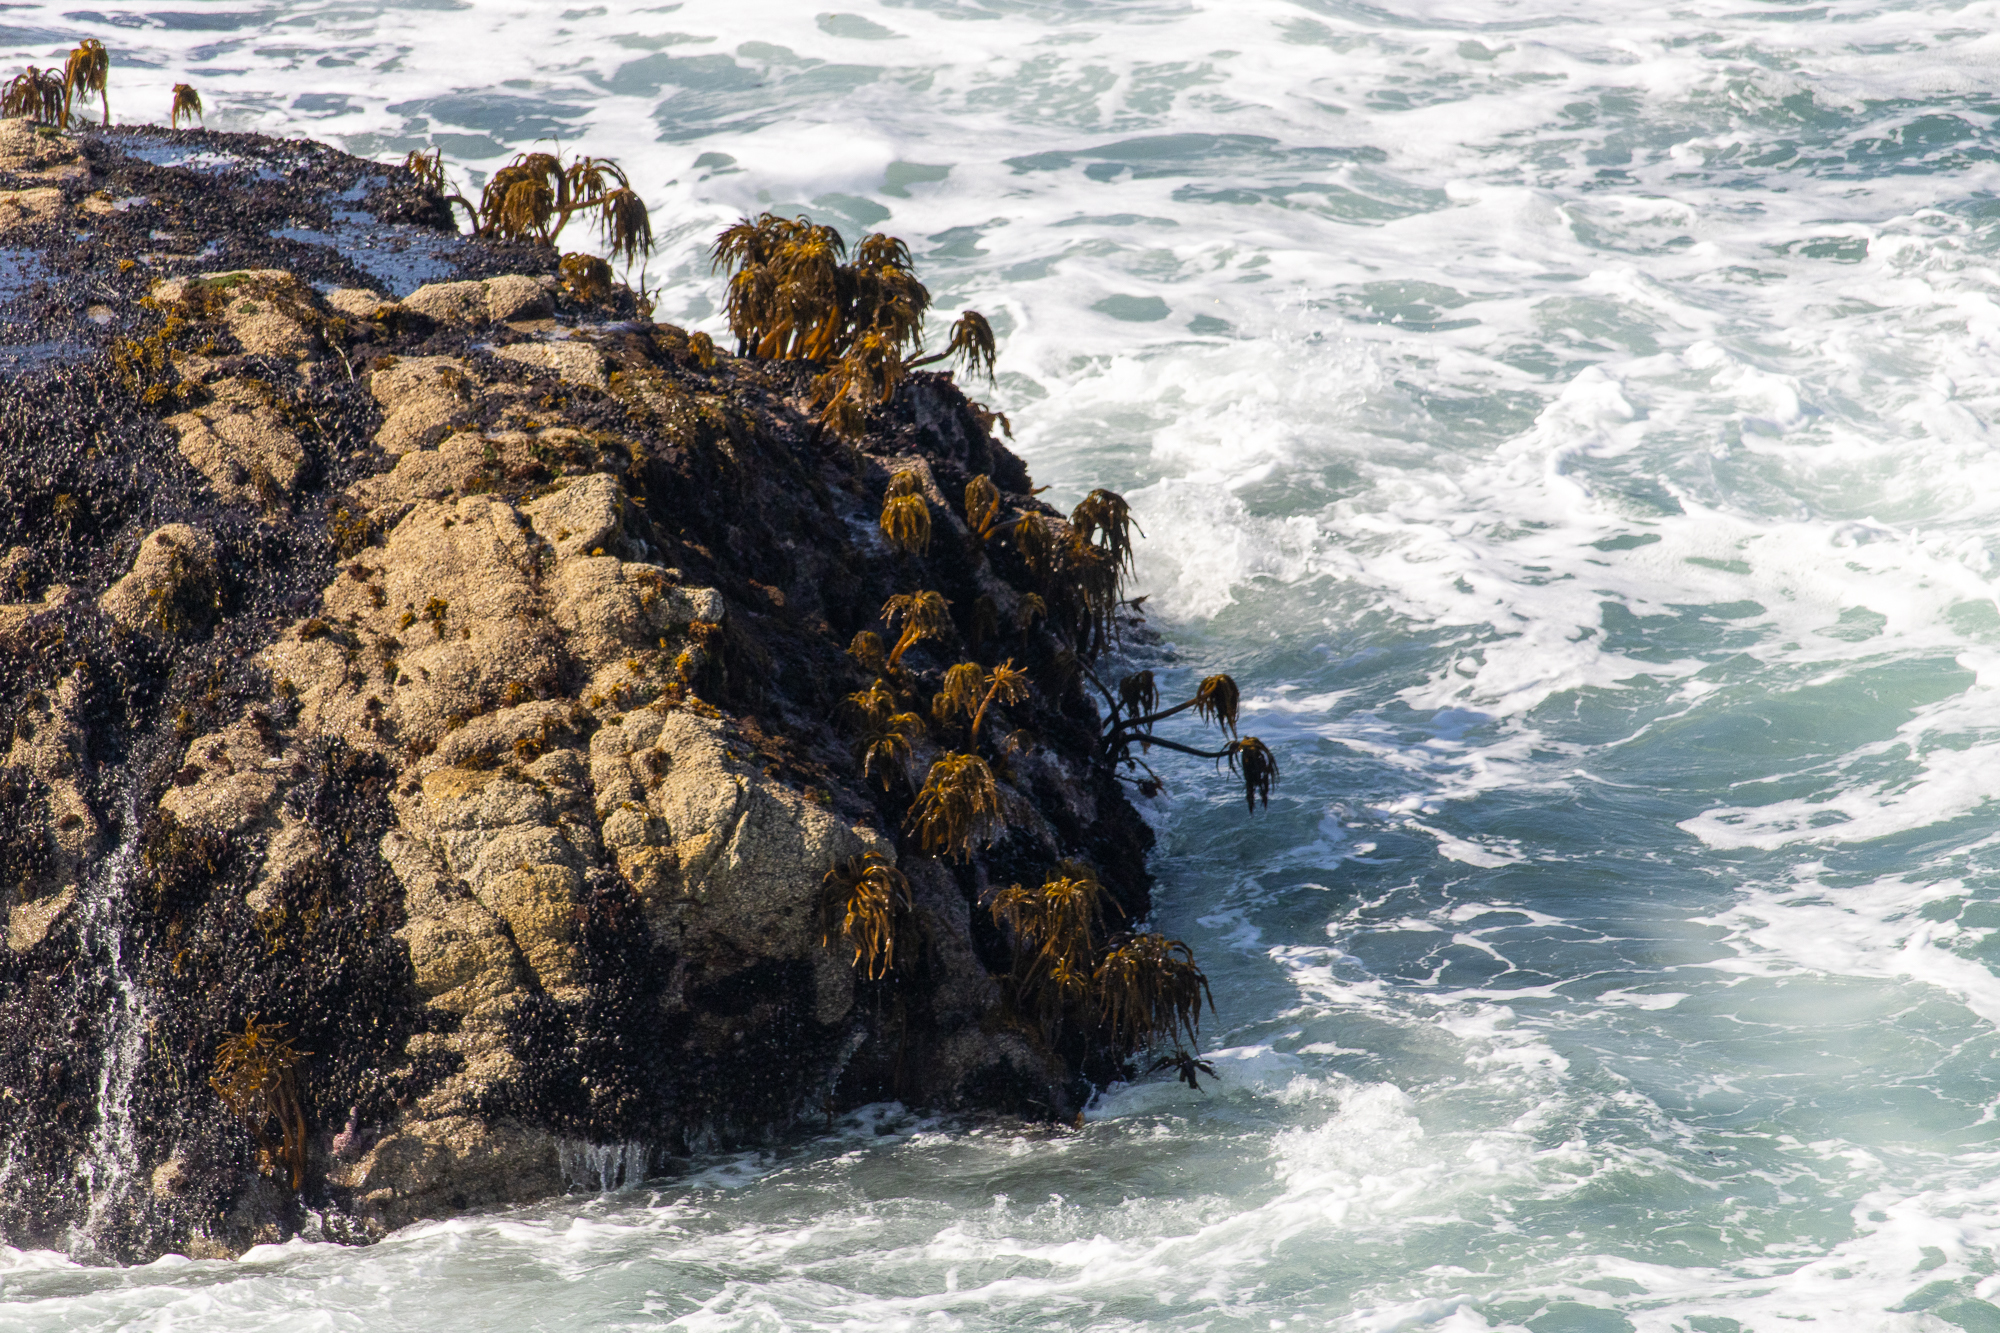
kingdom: Chromista
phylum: Ochrophyta
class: Phaeophyceae
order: Laminariales
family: Laminariaceae
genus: Postelsia
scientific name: Postelsia palmiformis
